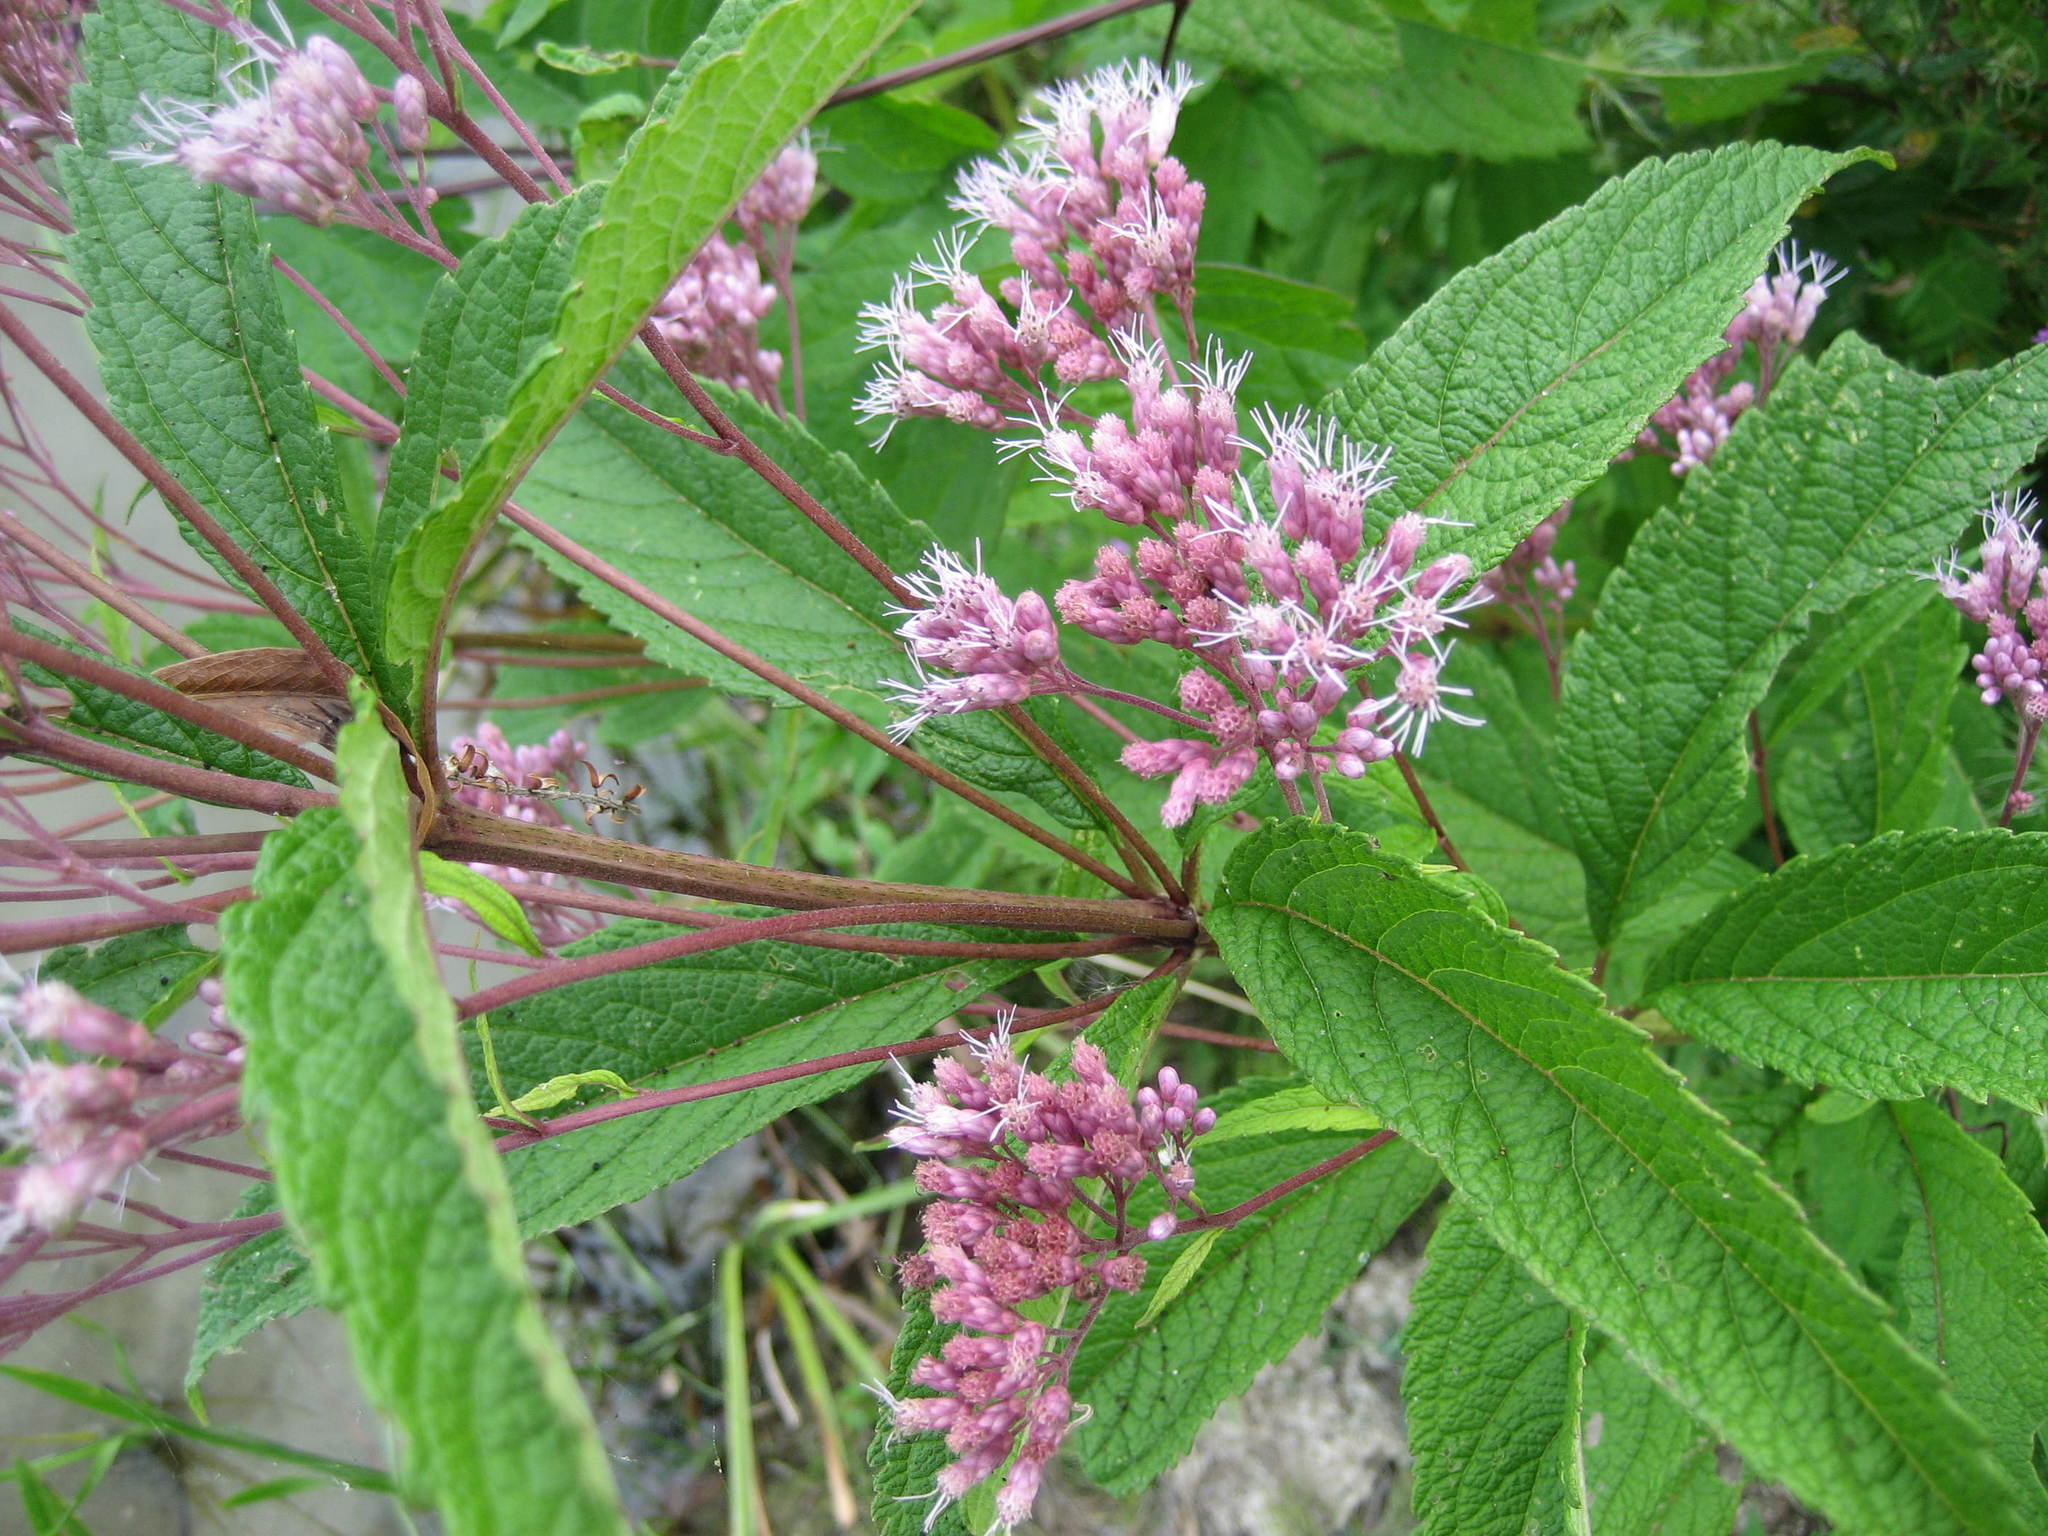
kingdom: Plantae
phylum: Tracheophyta
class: Magnoliopsida
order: Asterales
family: Asteraceae
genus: Eutrochium
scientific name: Eutrochium maculatum
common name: Spotted joe pye weed
